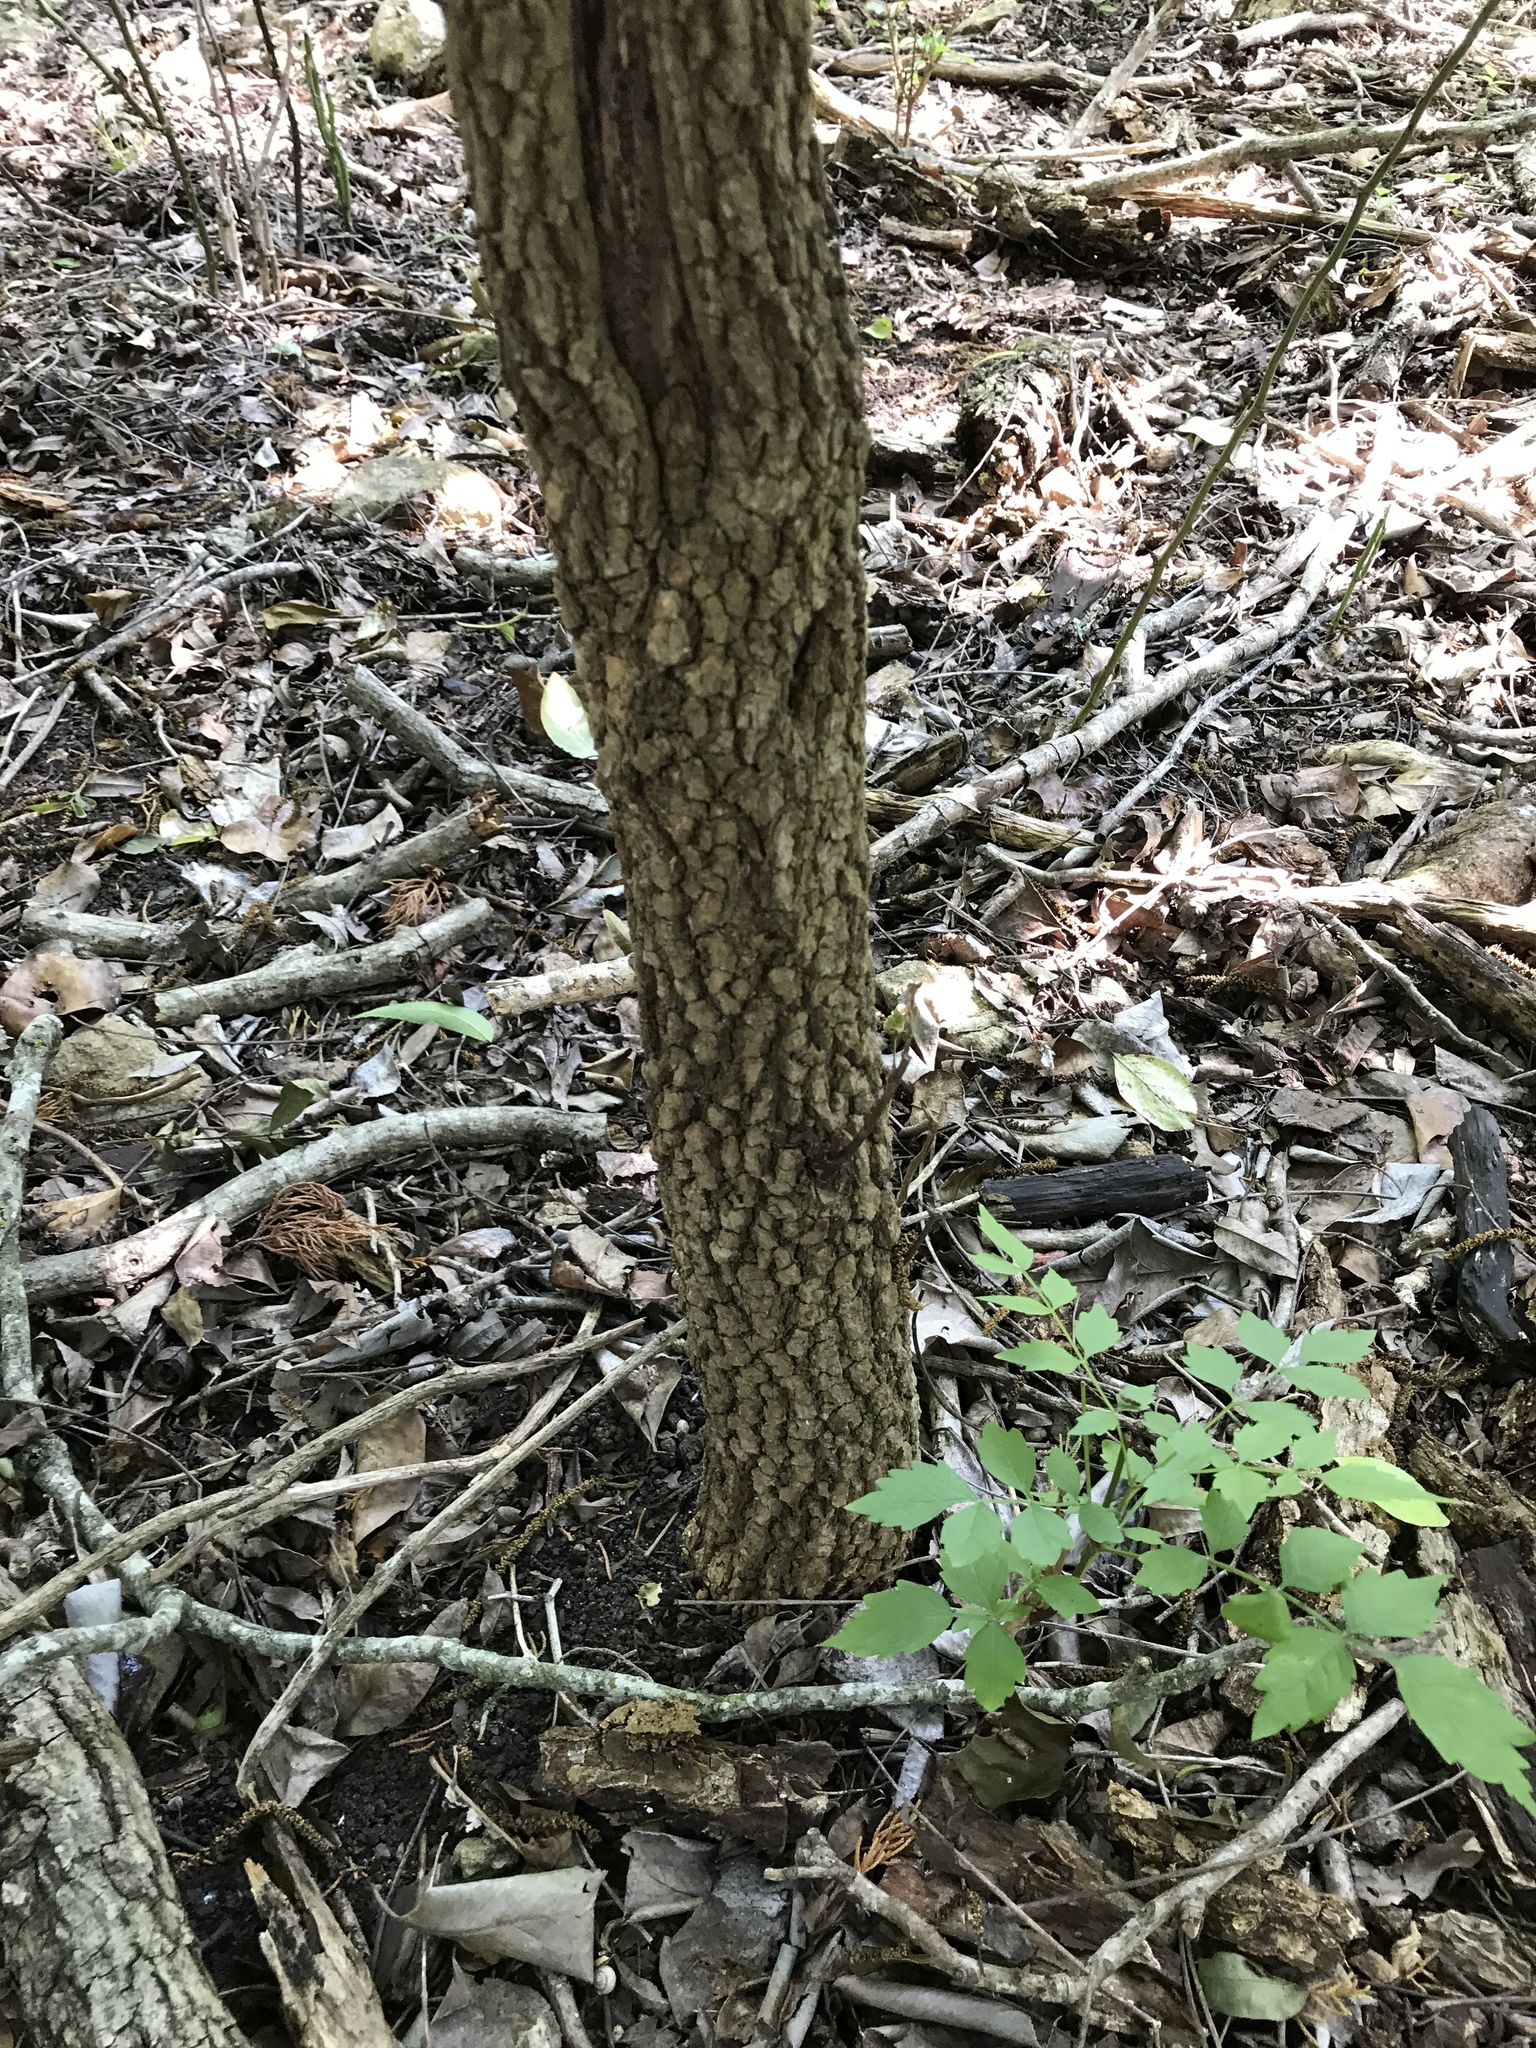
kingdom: Plantae
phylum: Tracheophyta
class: Magnoliopsida
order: Dipsacales
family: Viburnaceae
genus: Viburnum
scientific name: Viburnum rufidulum
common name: Blue haw
